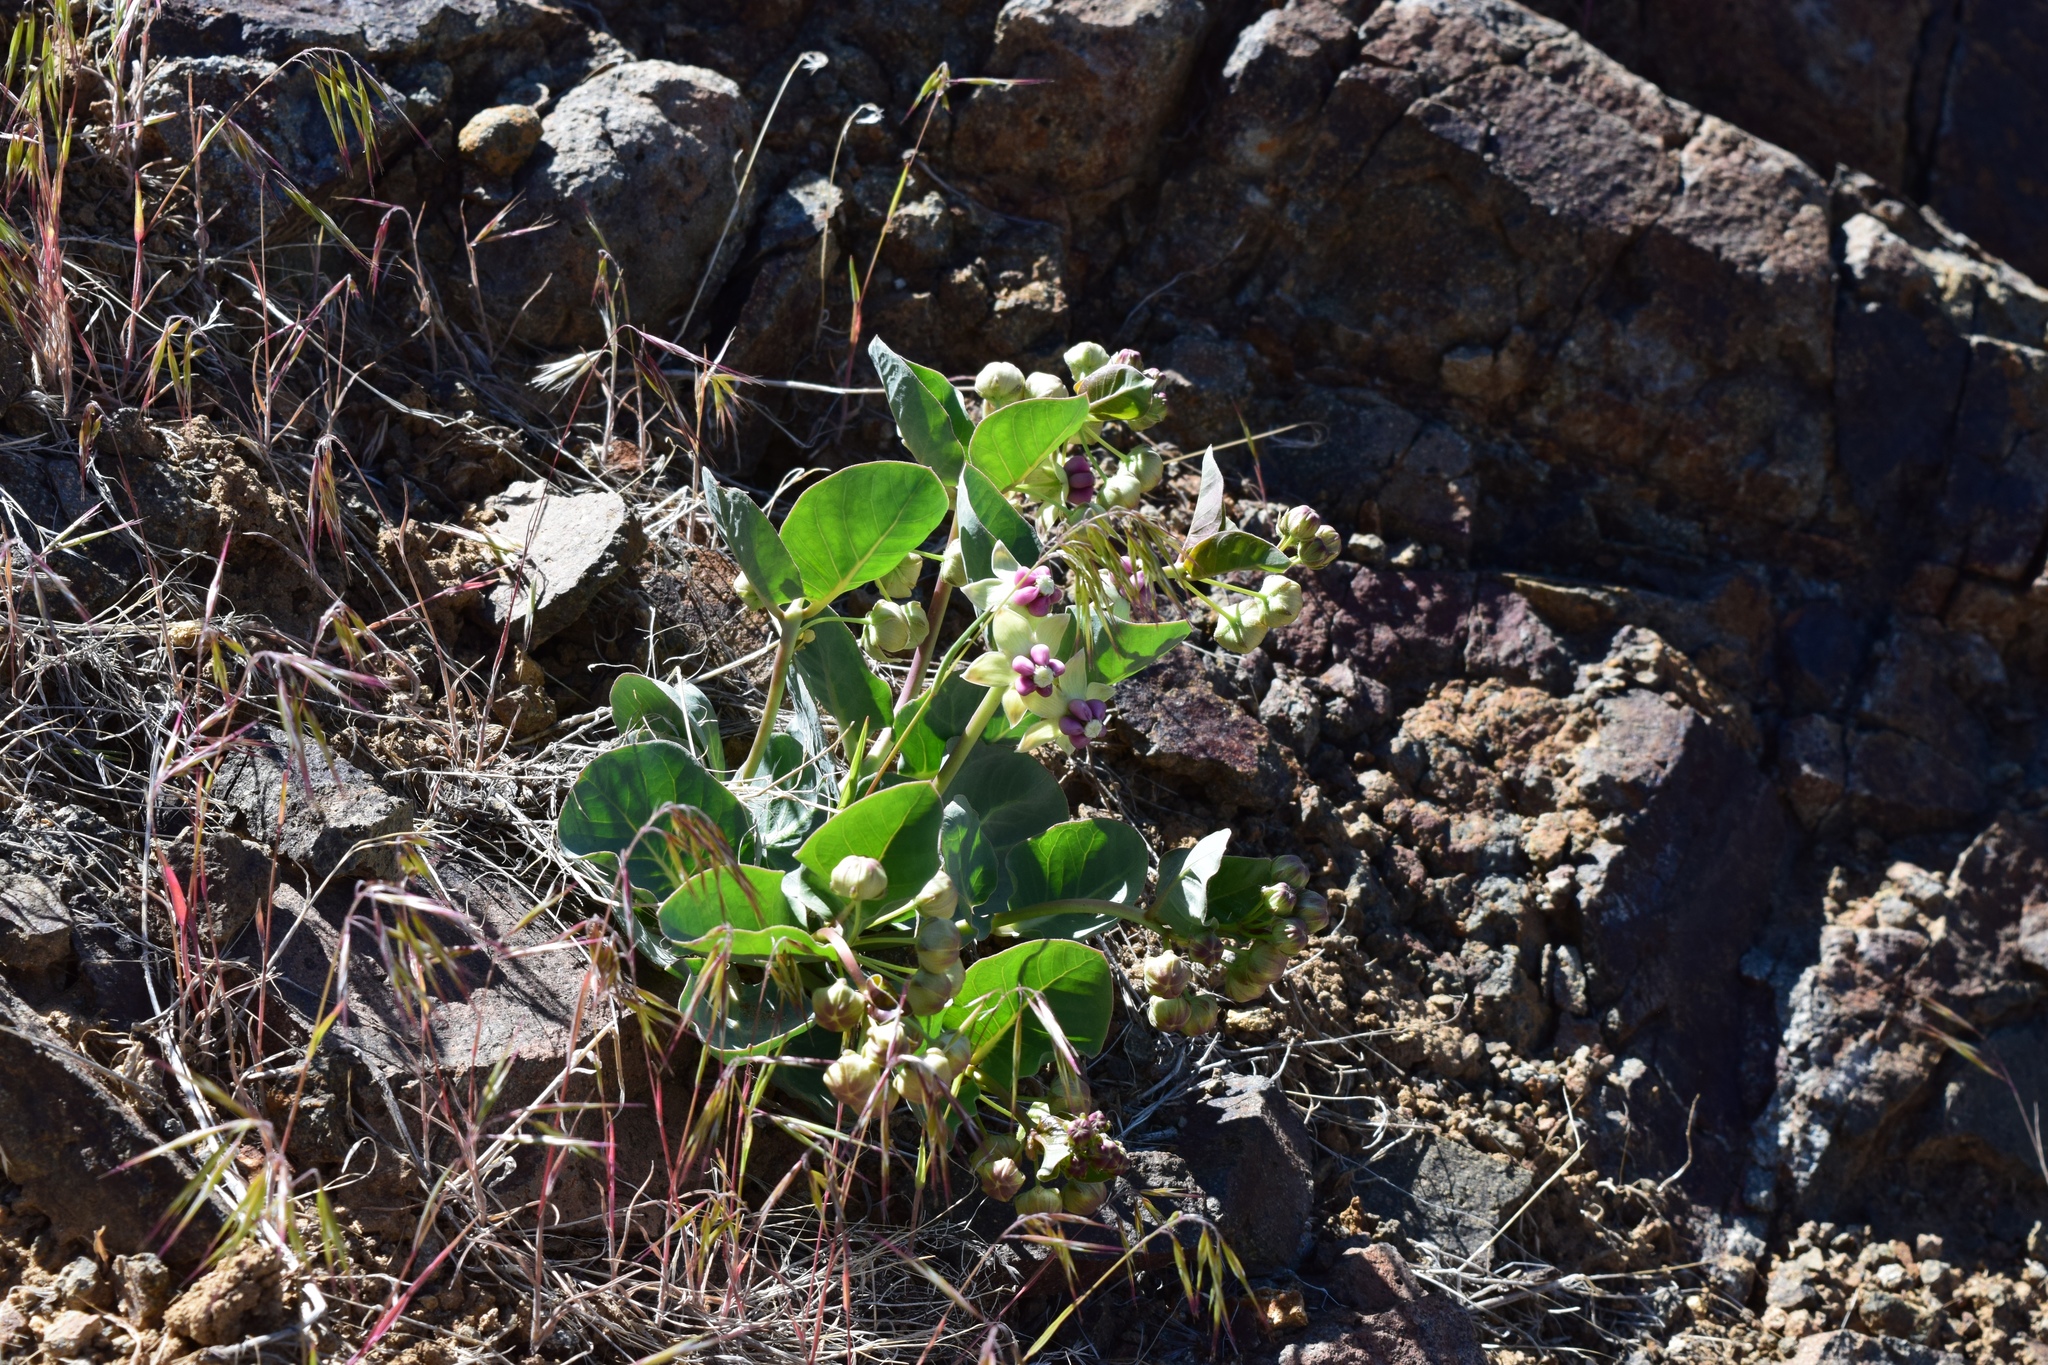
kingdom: Plantae
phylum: Tracheophyta
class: Magnoliopsida
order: Gentianales
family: Apocynaceae
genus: Asclepias
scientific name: Asclepias cryptoceras
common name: Humboldt mountains milkweed
